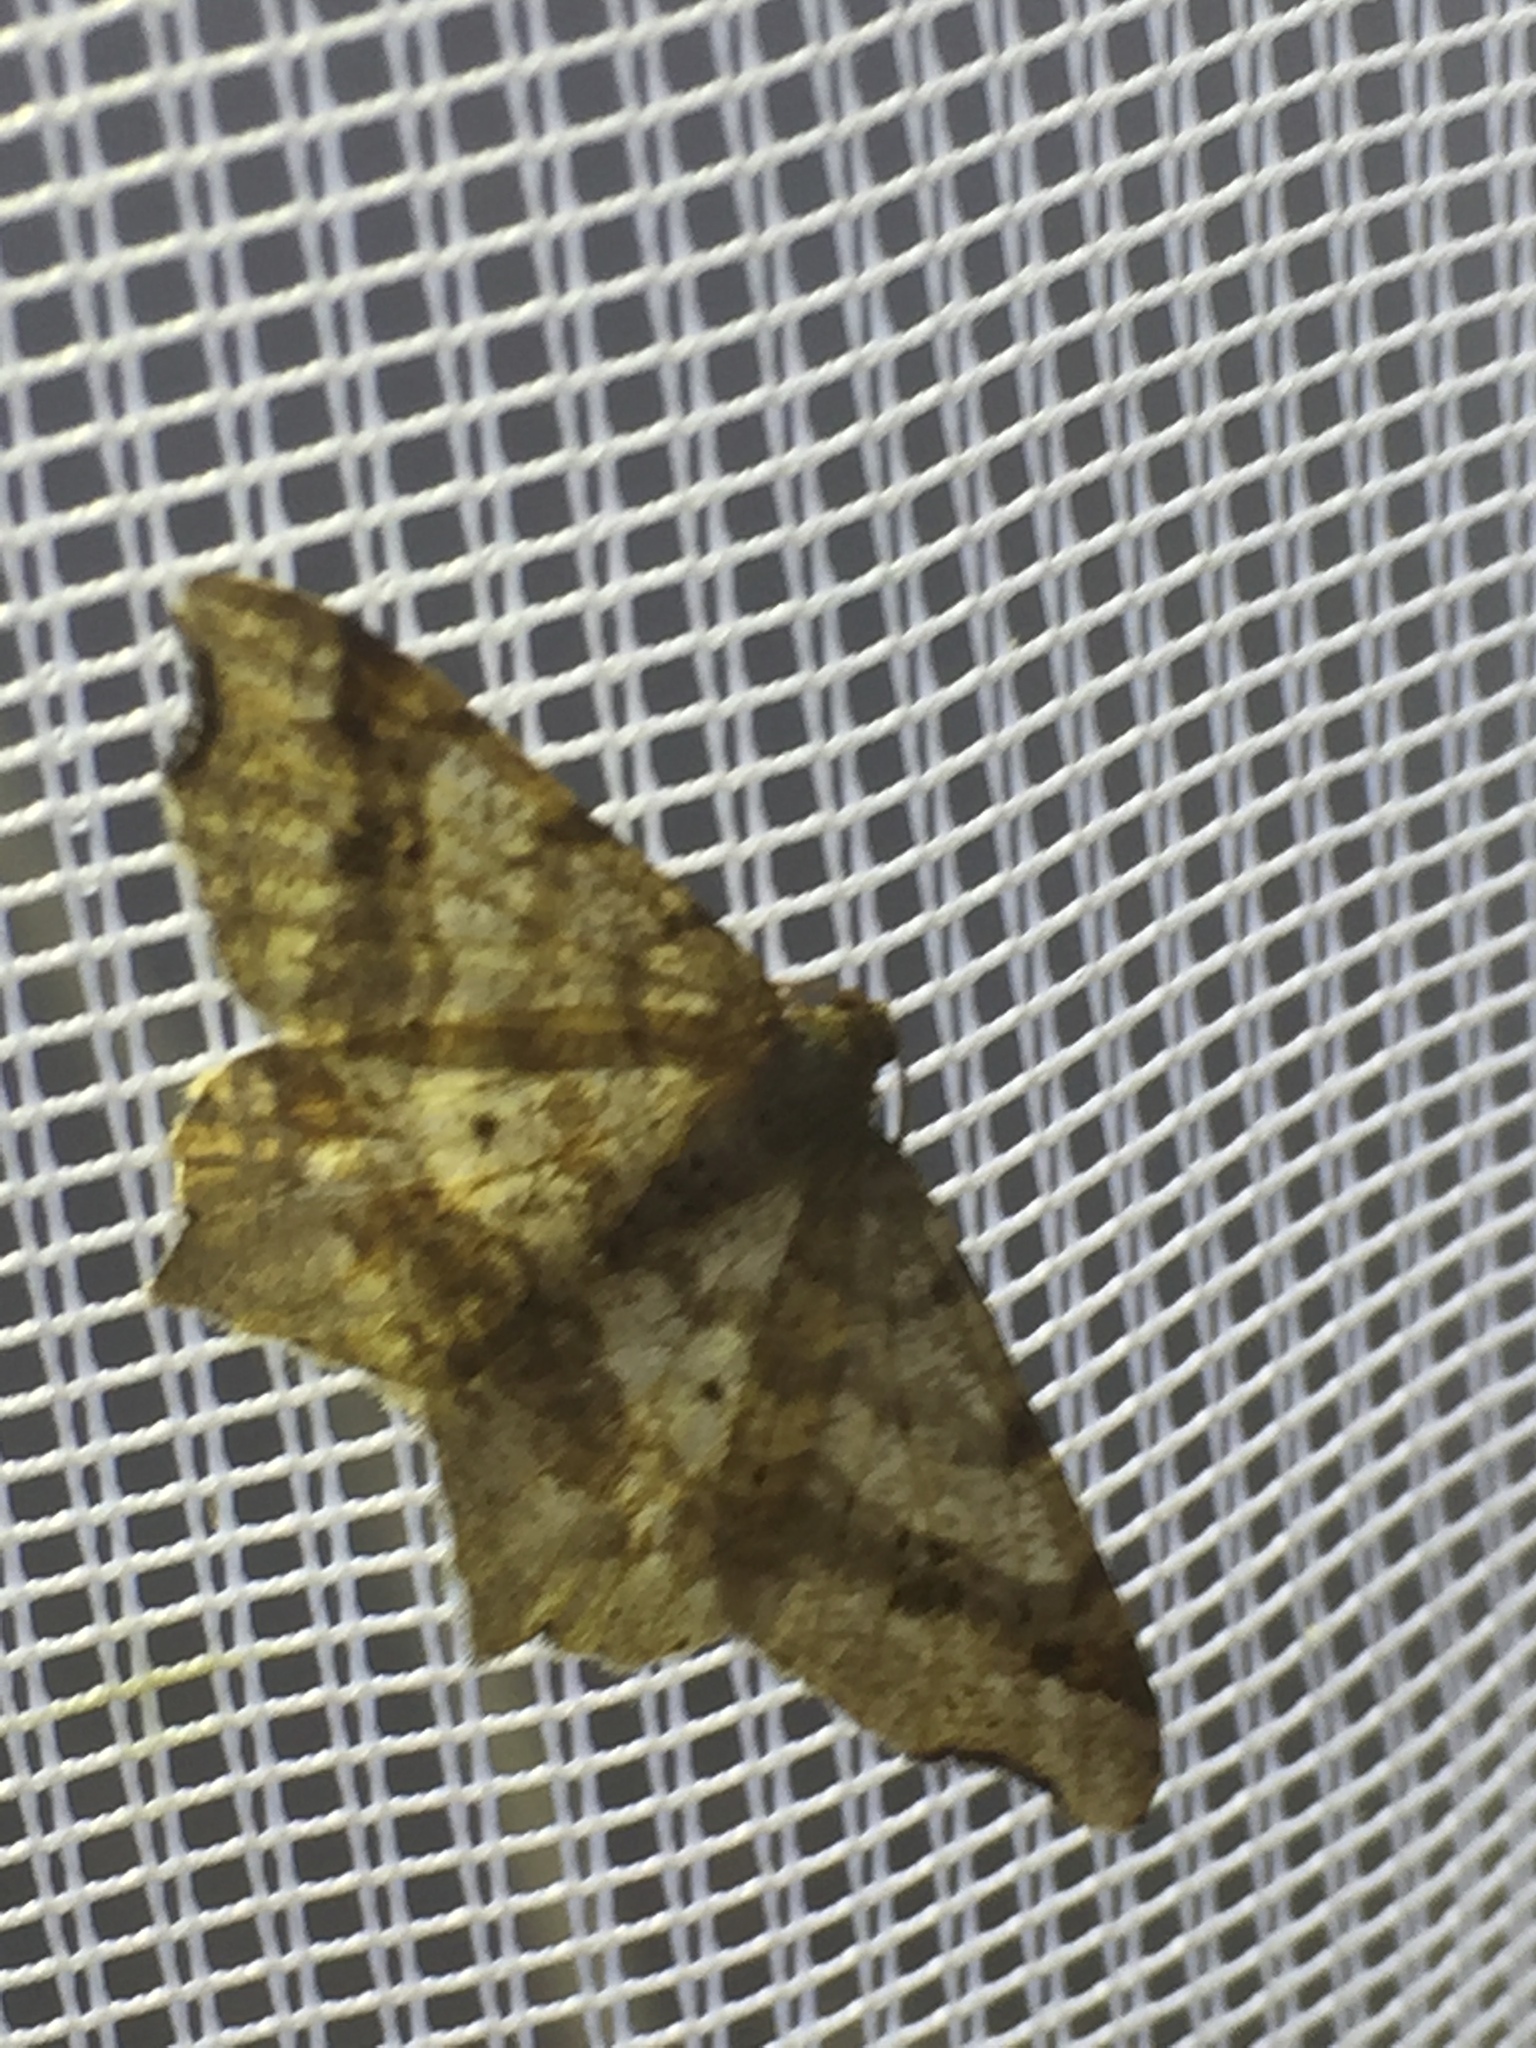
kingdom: Animalia
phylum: Arthropoda
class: Insecta
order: Lepidoptera
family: Geometridae
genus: Macaria
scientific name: Macaria alternata
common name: Sharp-angled peacock
